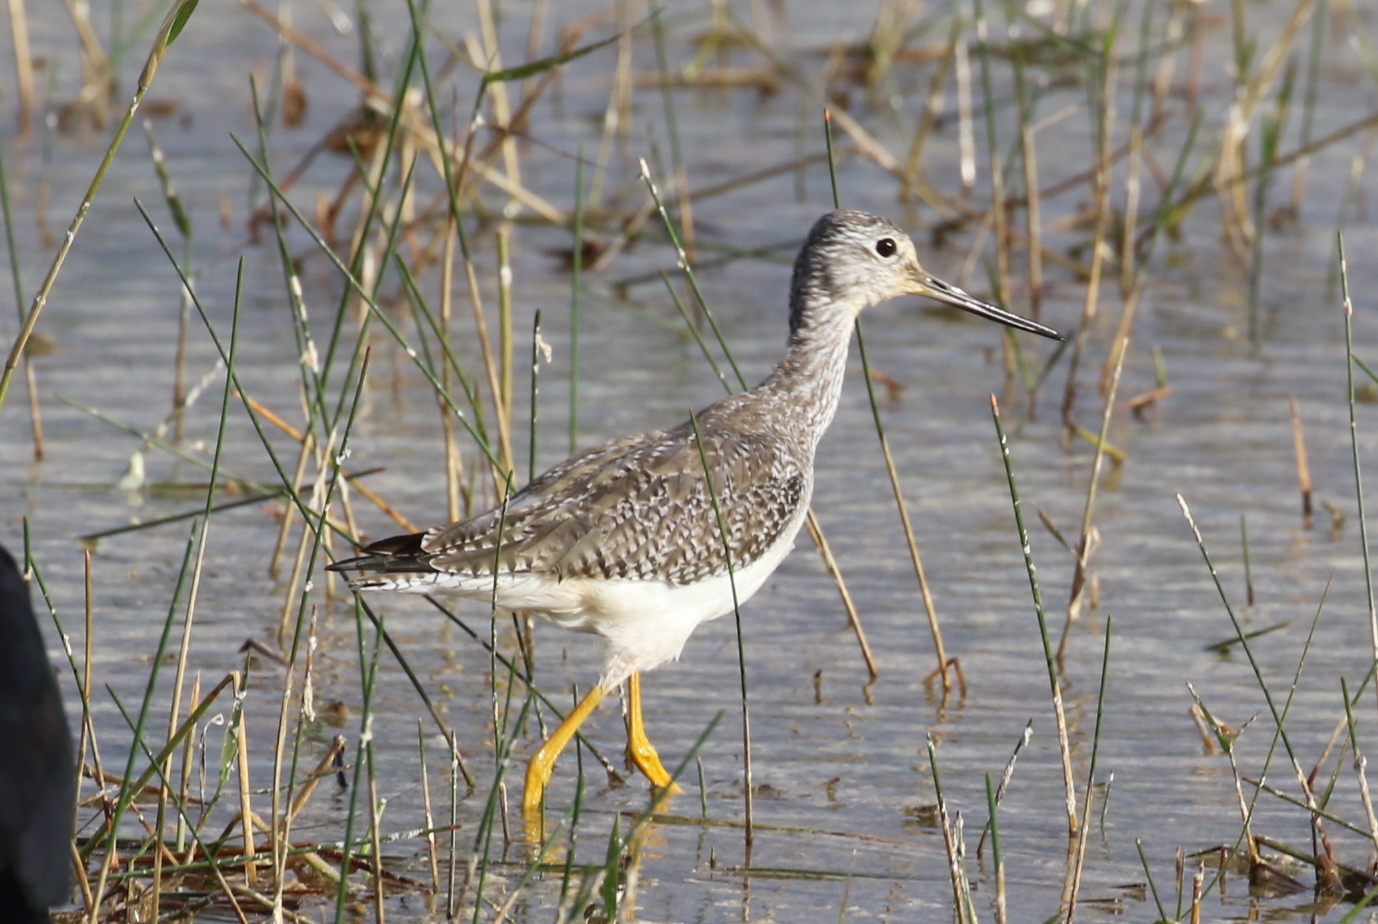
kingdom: Animalia
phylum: Chordata
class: Aves
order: Charadriiformes
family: Scolopacidae
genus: Tringa
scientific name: Tringa melanoleuca
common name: Greater yellowlegs
